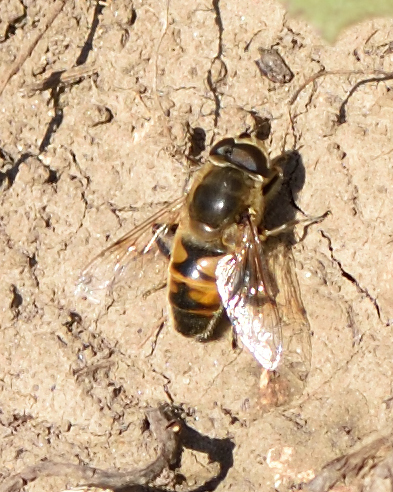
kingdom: Animalia
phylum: Arthropoda
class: Insecta
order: Diptera
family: Syrphidae
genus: Eristalis
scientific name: Eristalis tenax
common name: Drone fly
